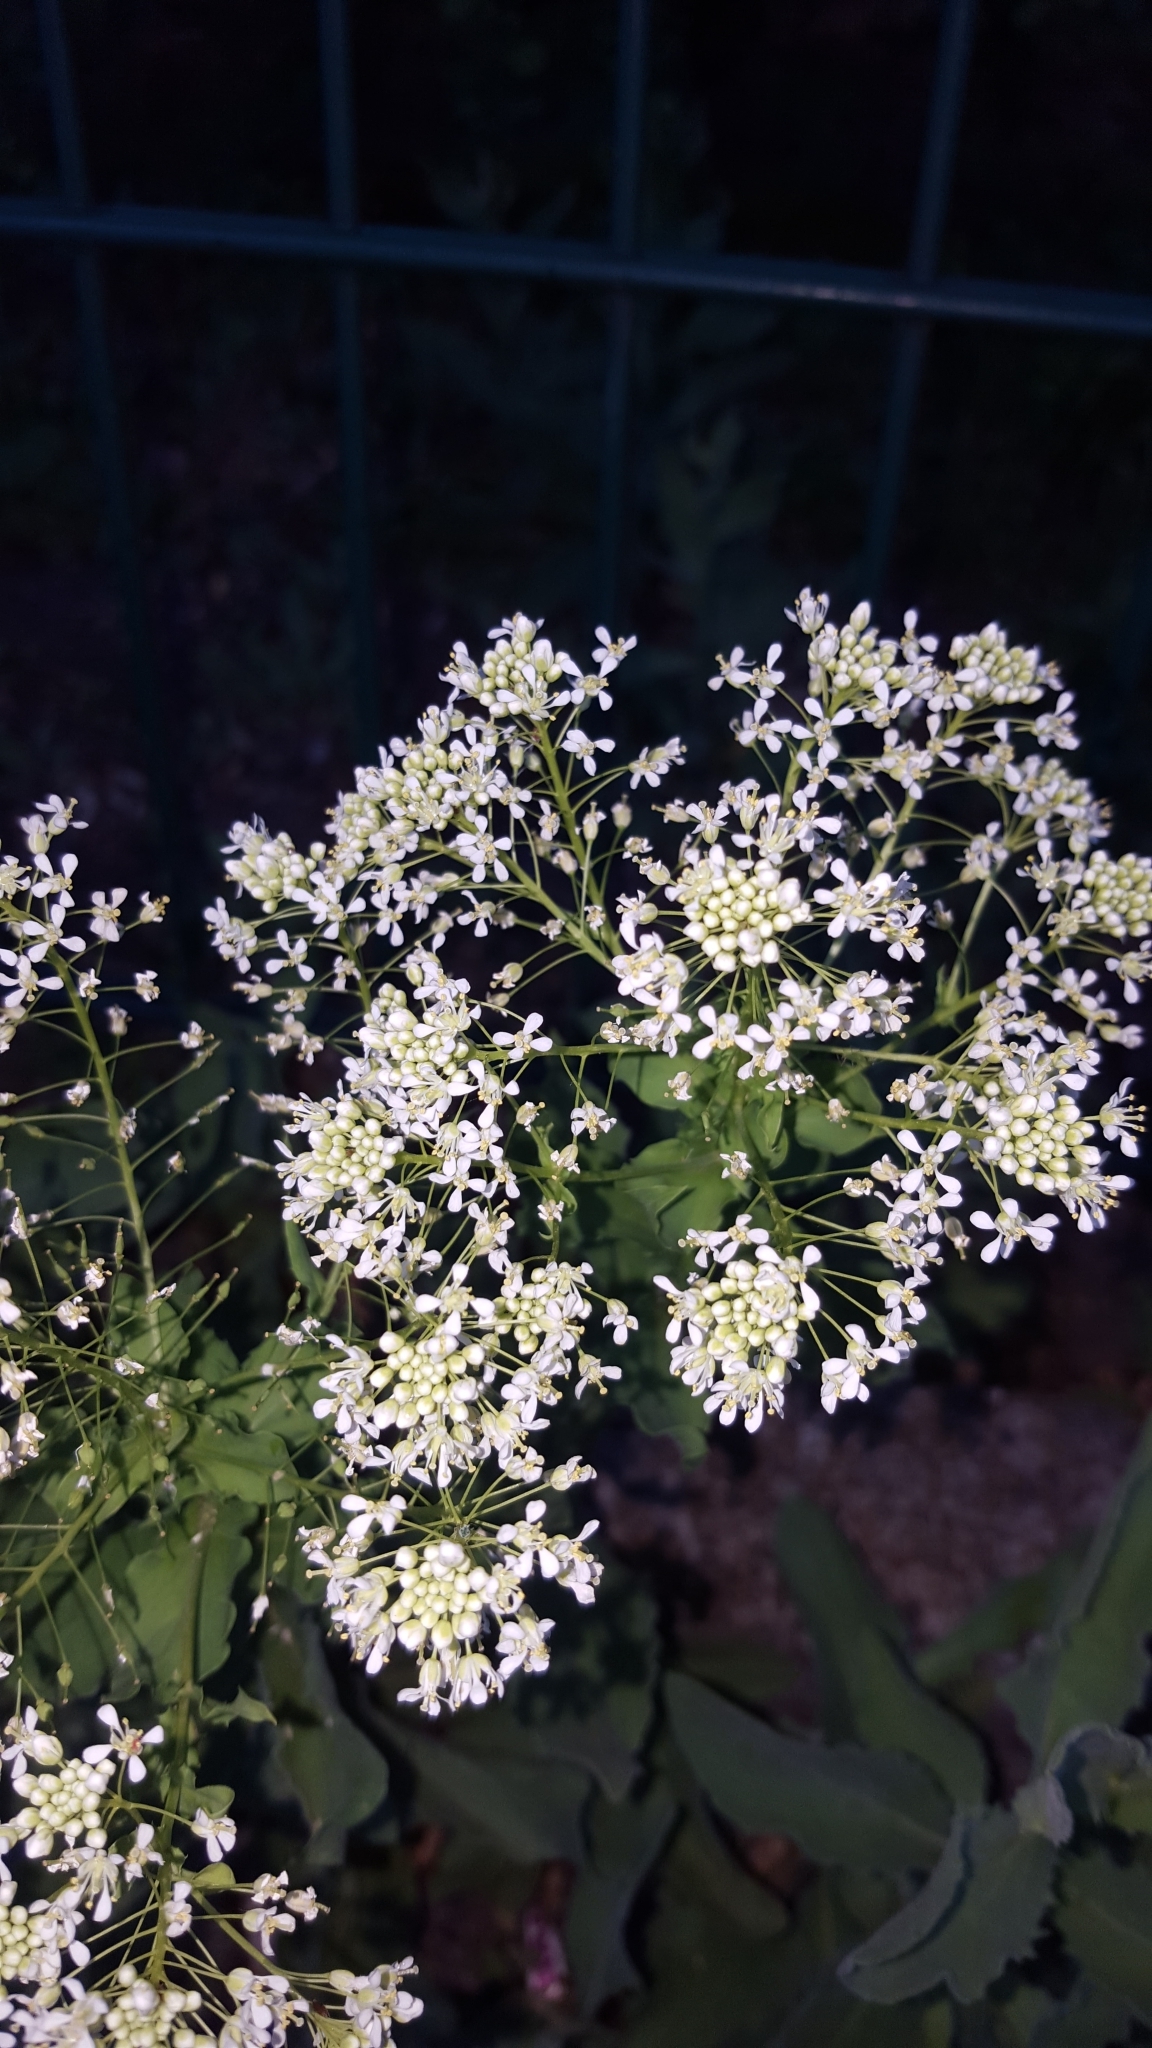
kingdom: Plantae
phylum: Tracheophyta
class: Magnoliopsida
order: Brassicales
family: Brassicaceae
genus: Lepidium
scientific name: Lepidium draba
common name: Hoary cress
